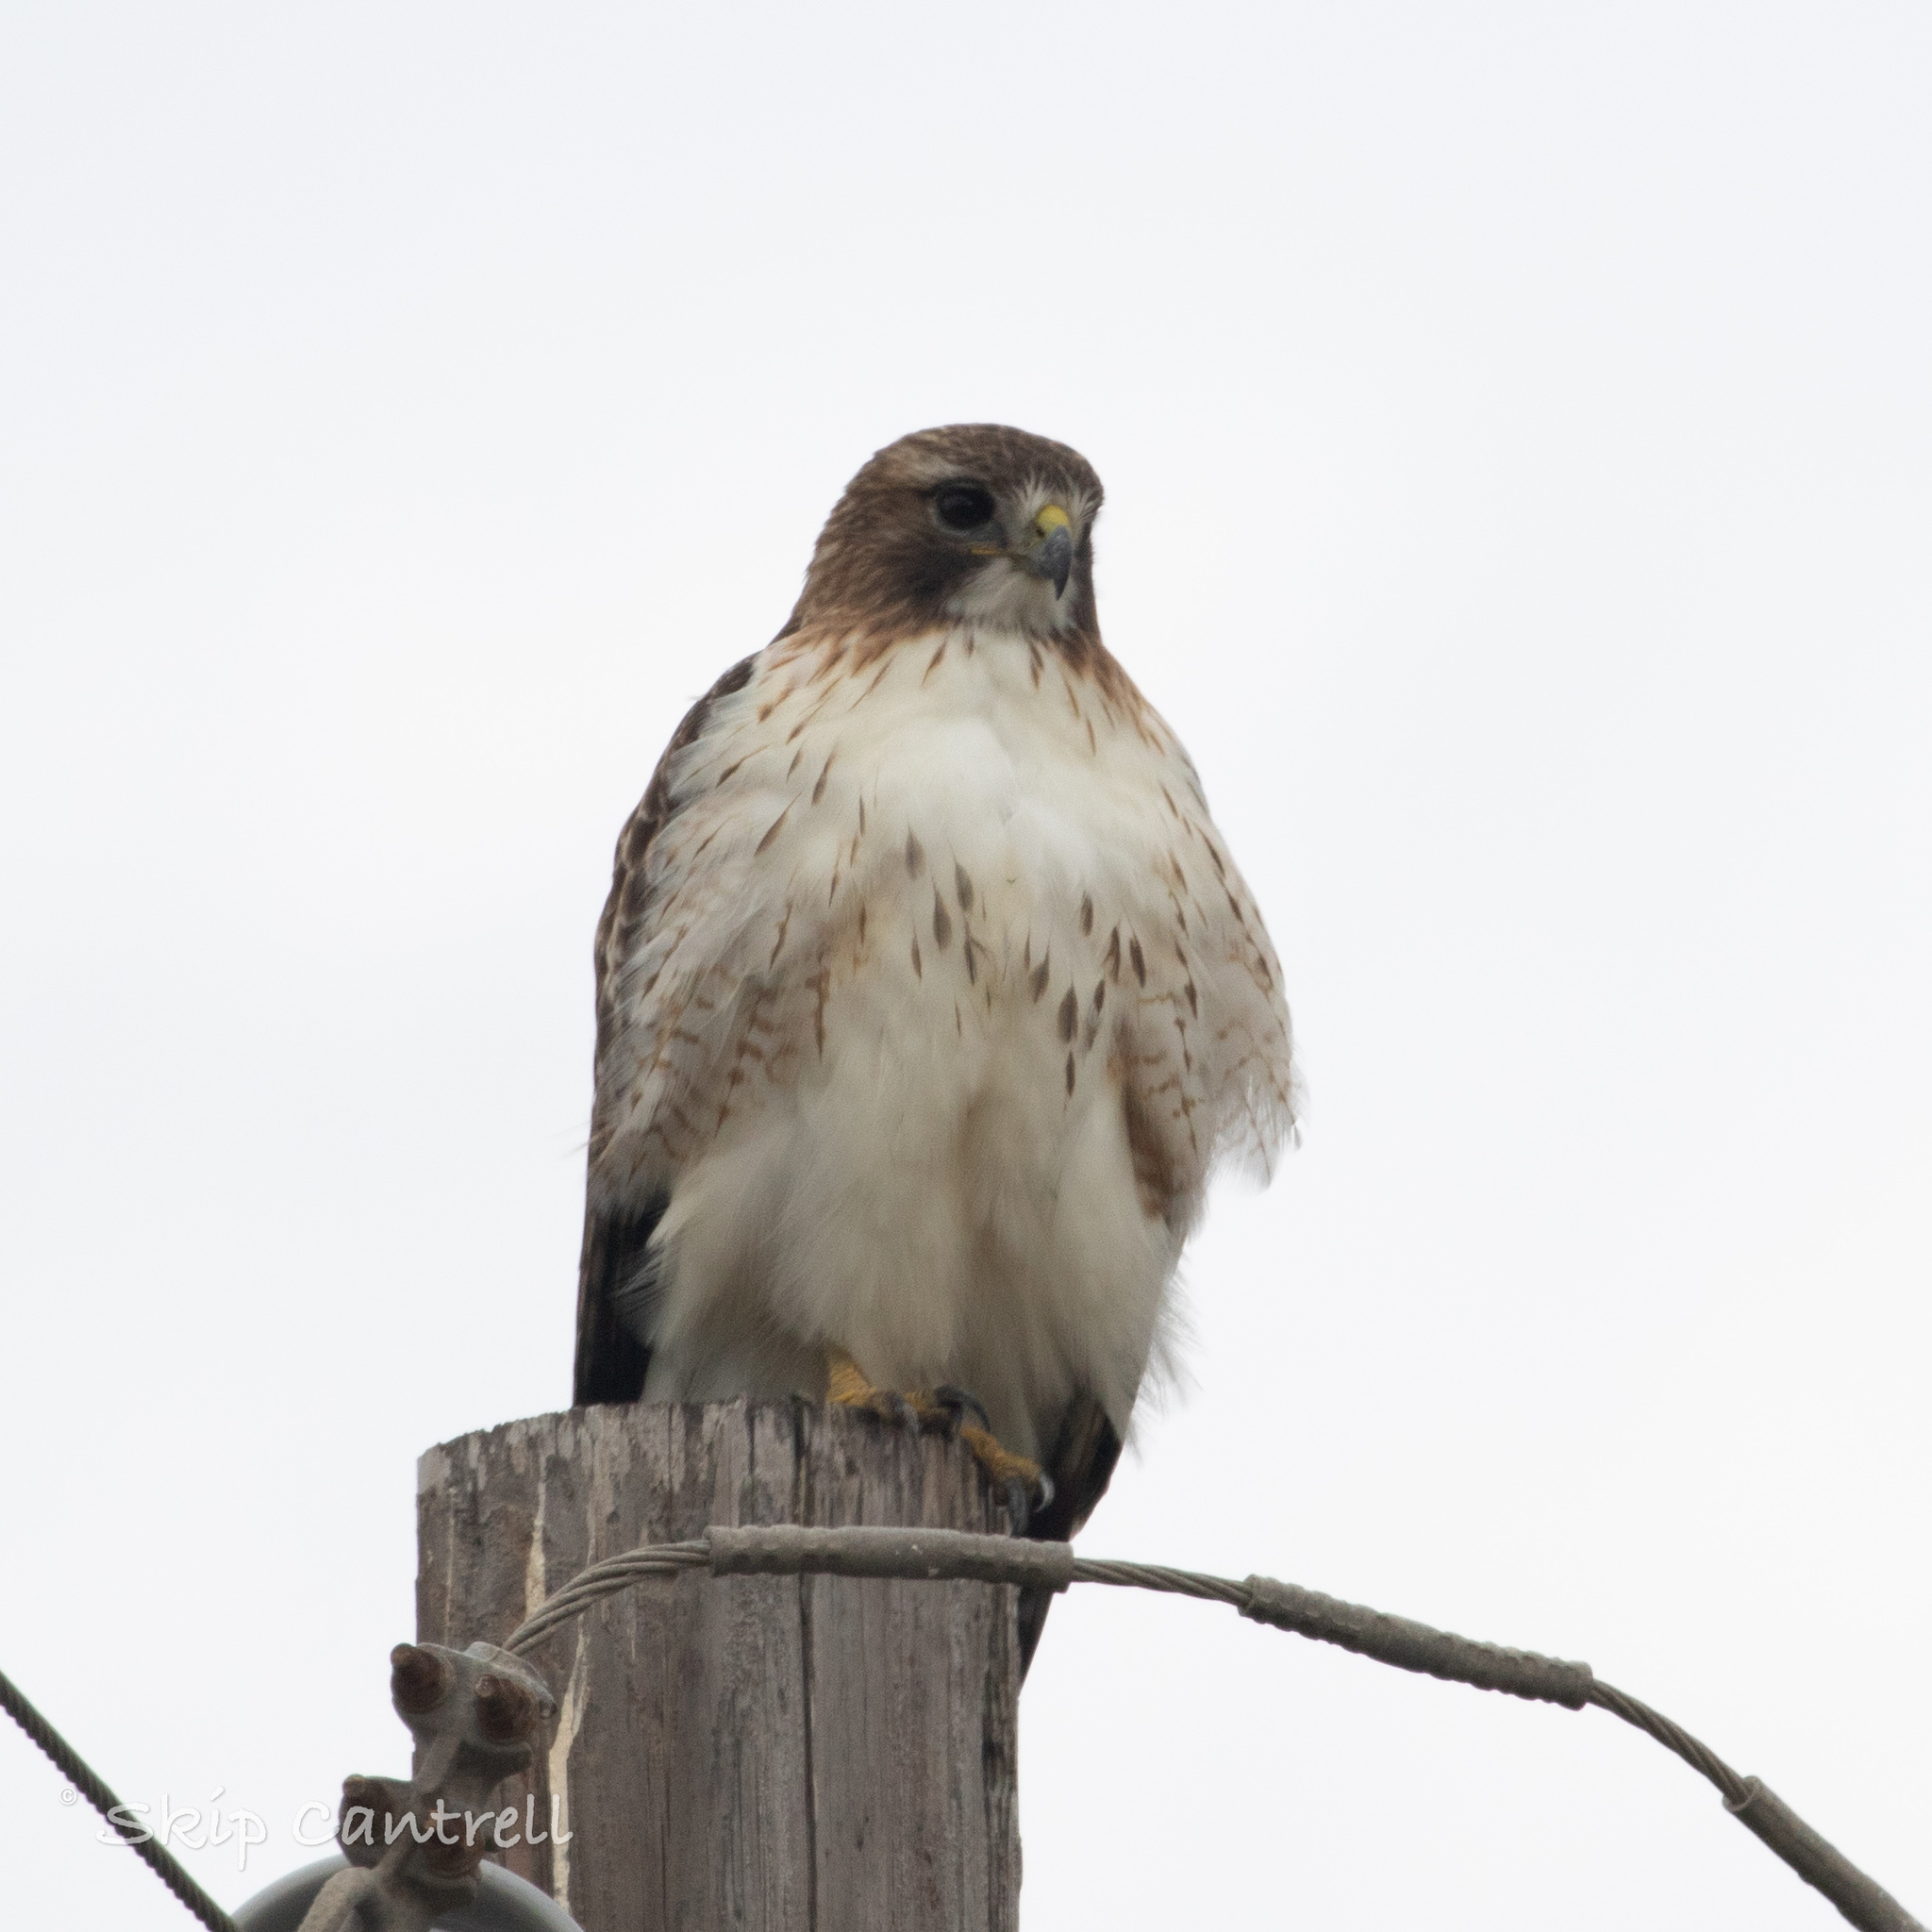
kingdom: Animalia
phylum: Chordata
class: Aves
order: Accipitriformes
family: Accipitridae
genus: Buteo
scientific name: Buteo jamaicensis
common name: Red-tailed hawk
